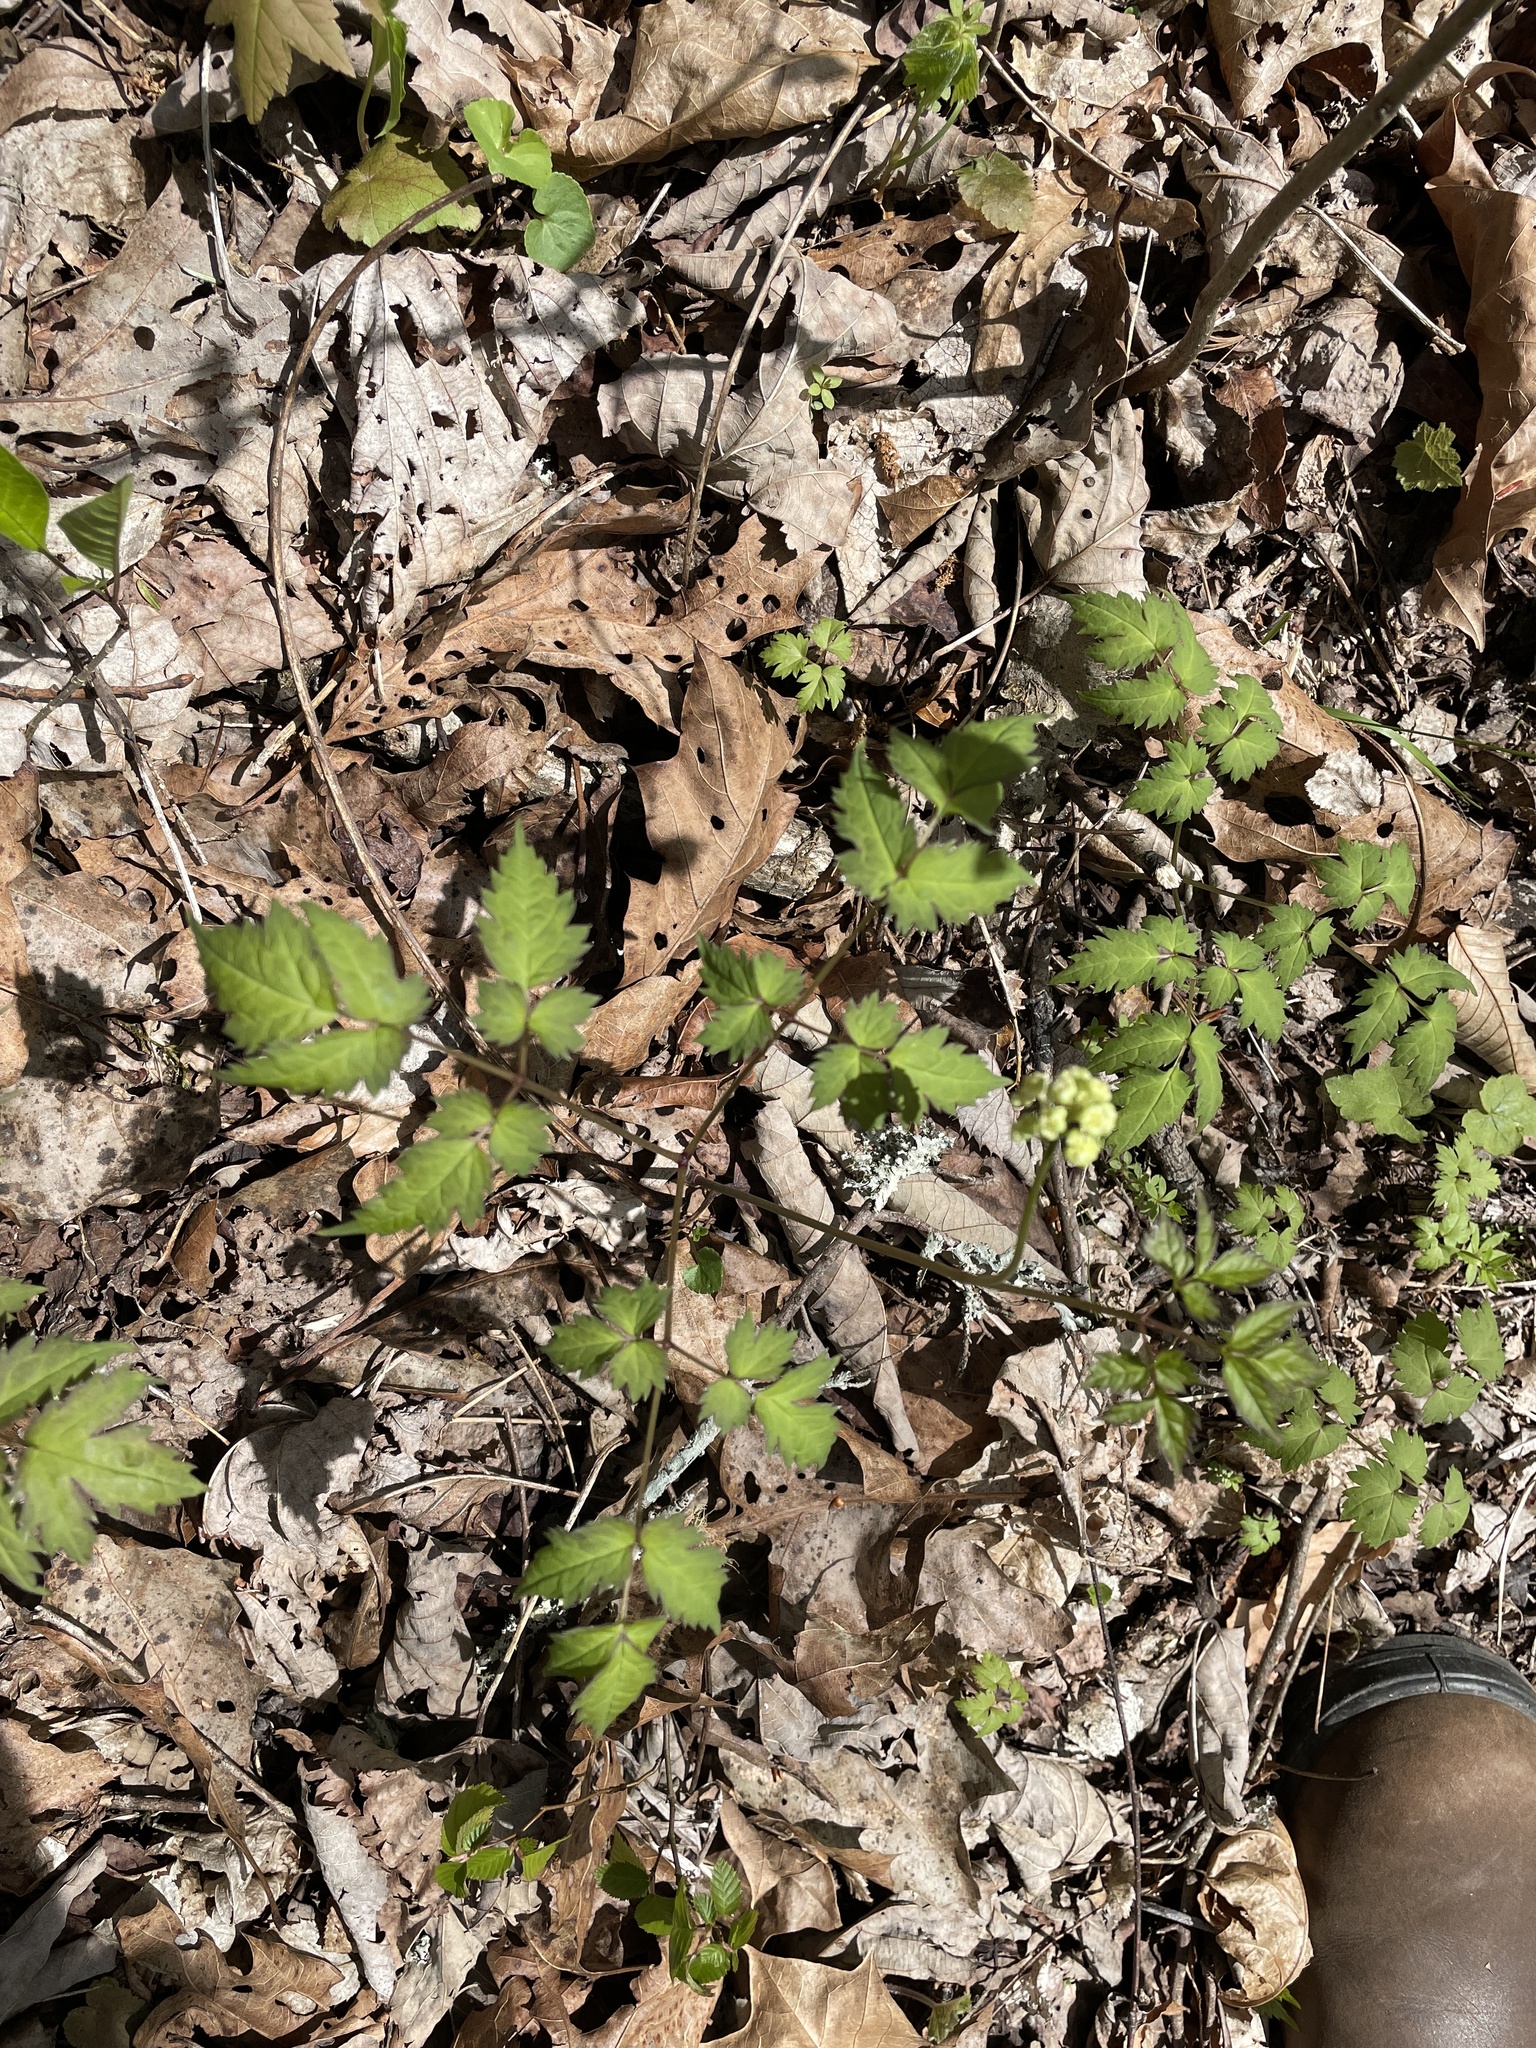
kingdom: Plantae
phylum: Tracheophyta
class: Magnoliopsida
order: Ranunculales
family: Ranunculaceae
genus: Actaea
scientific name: Actaea pachypoda
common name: Doll's-eyes
